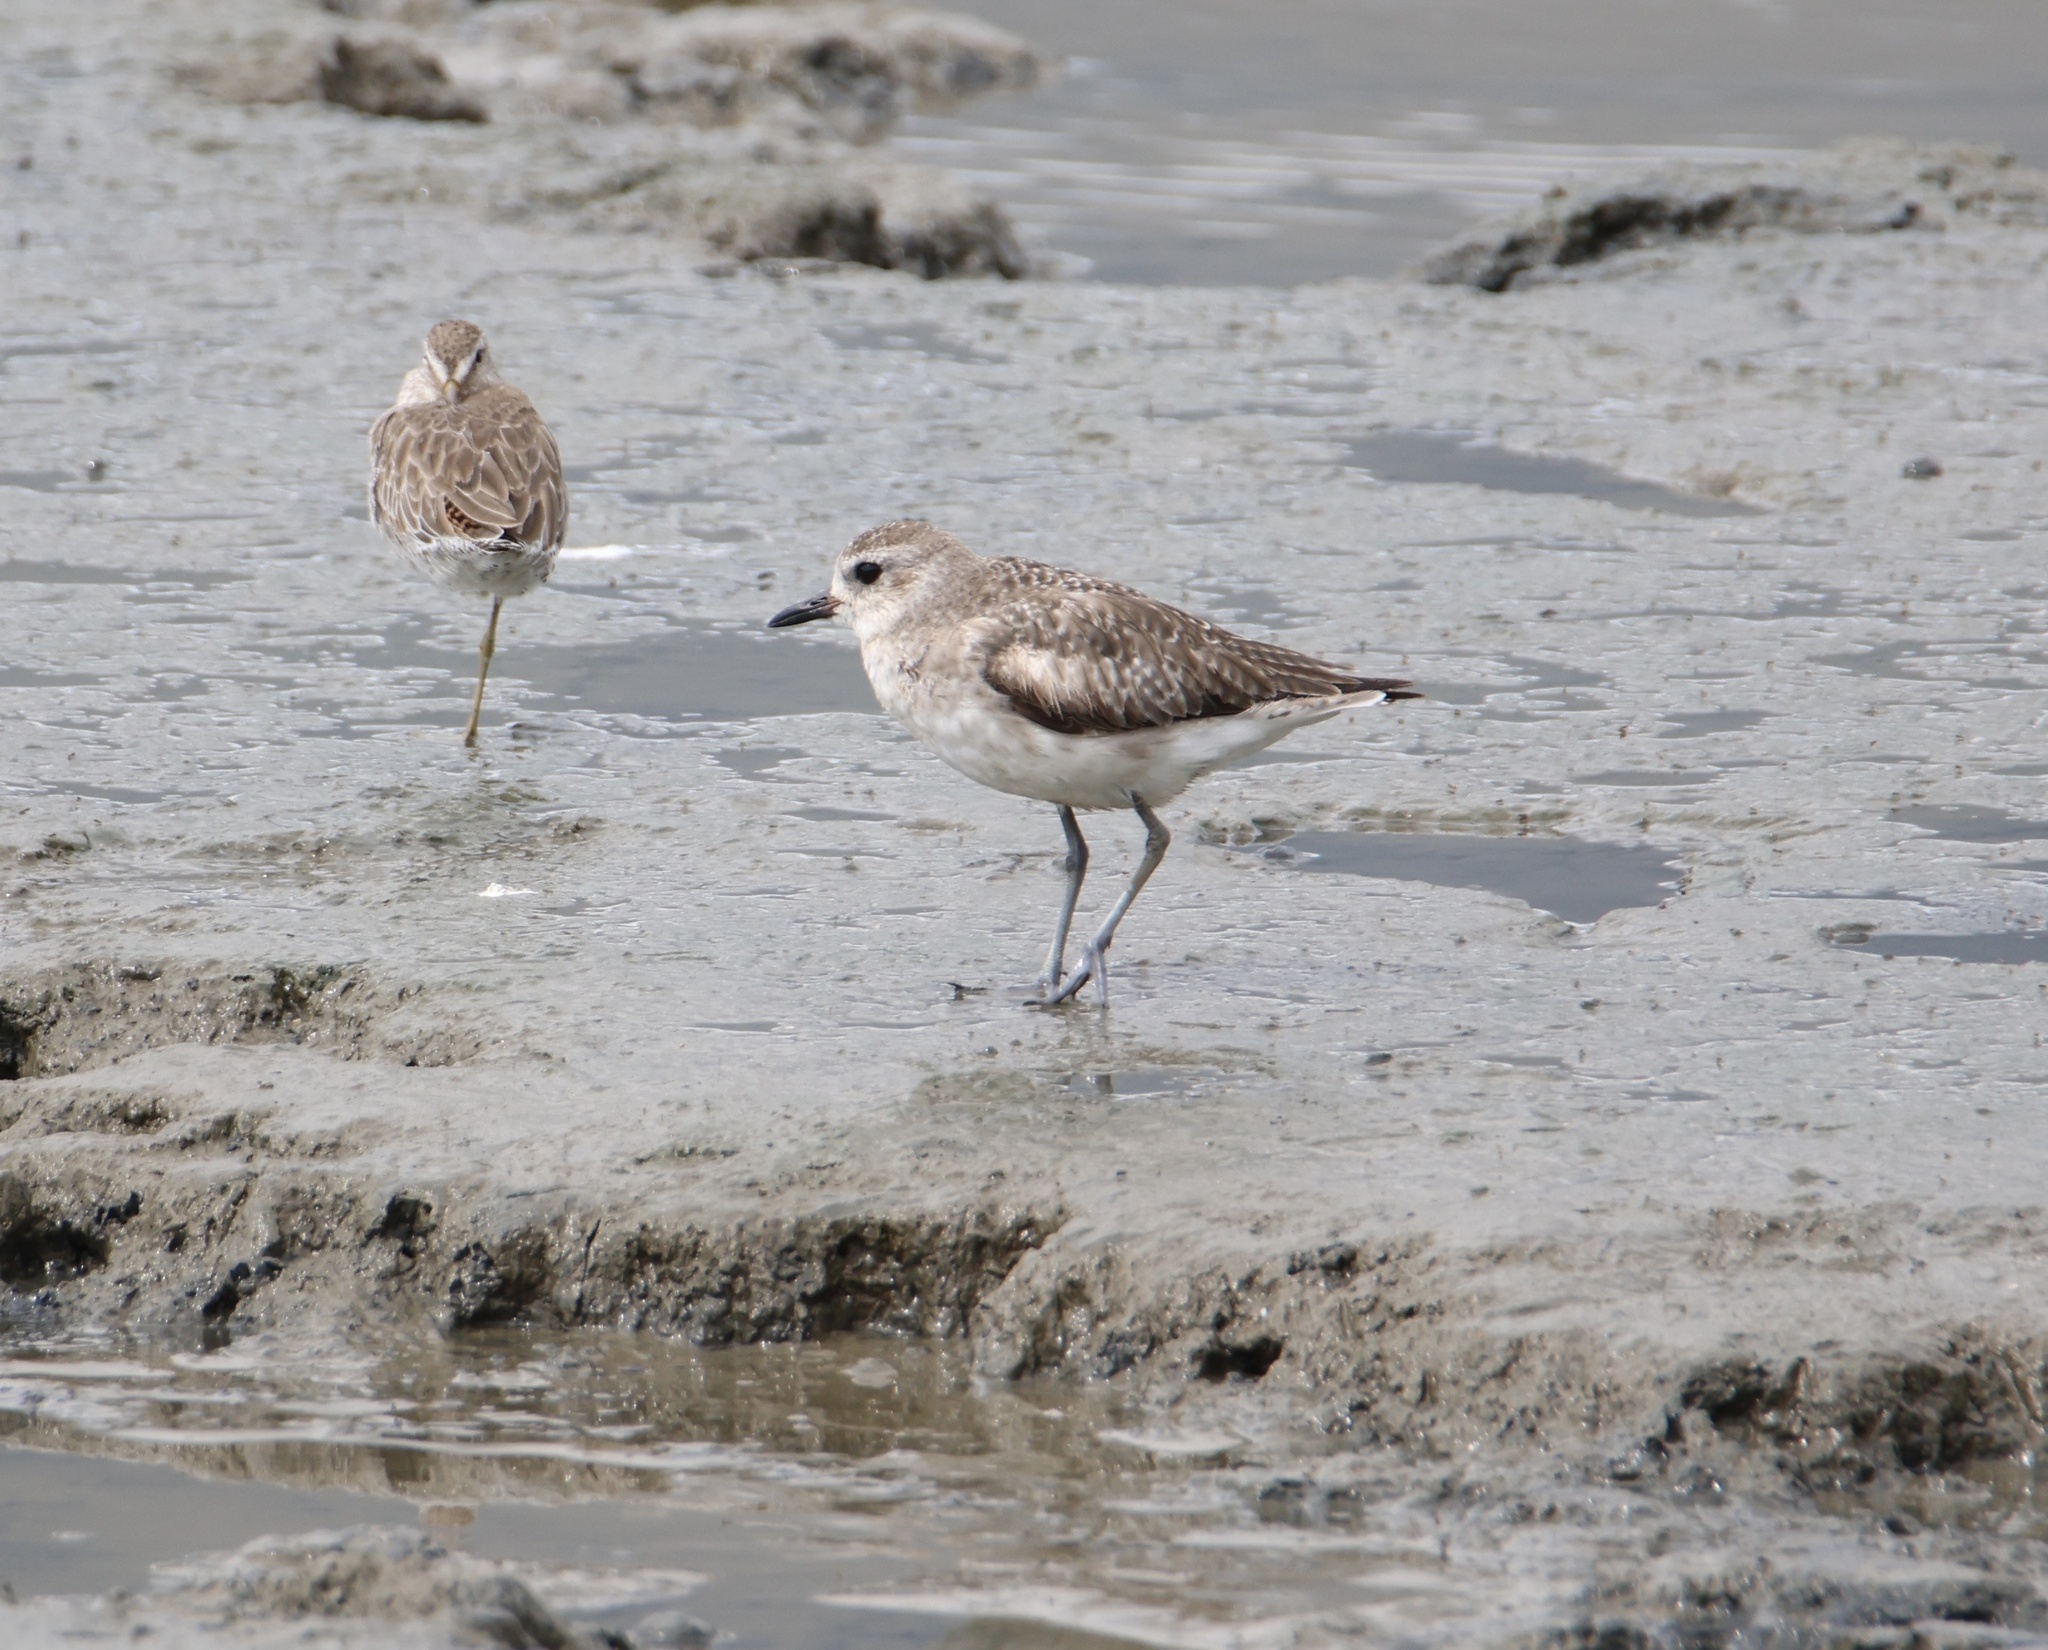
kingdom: Animalia
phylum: Chordata
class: Aves
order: Charadriiformes
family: Charadriidae
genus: Pluvialis
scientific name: Pluvialis squatarola
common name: Grey plover
